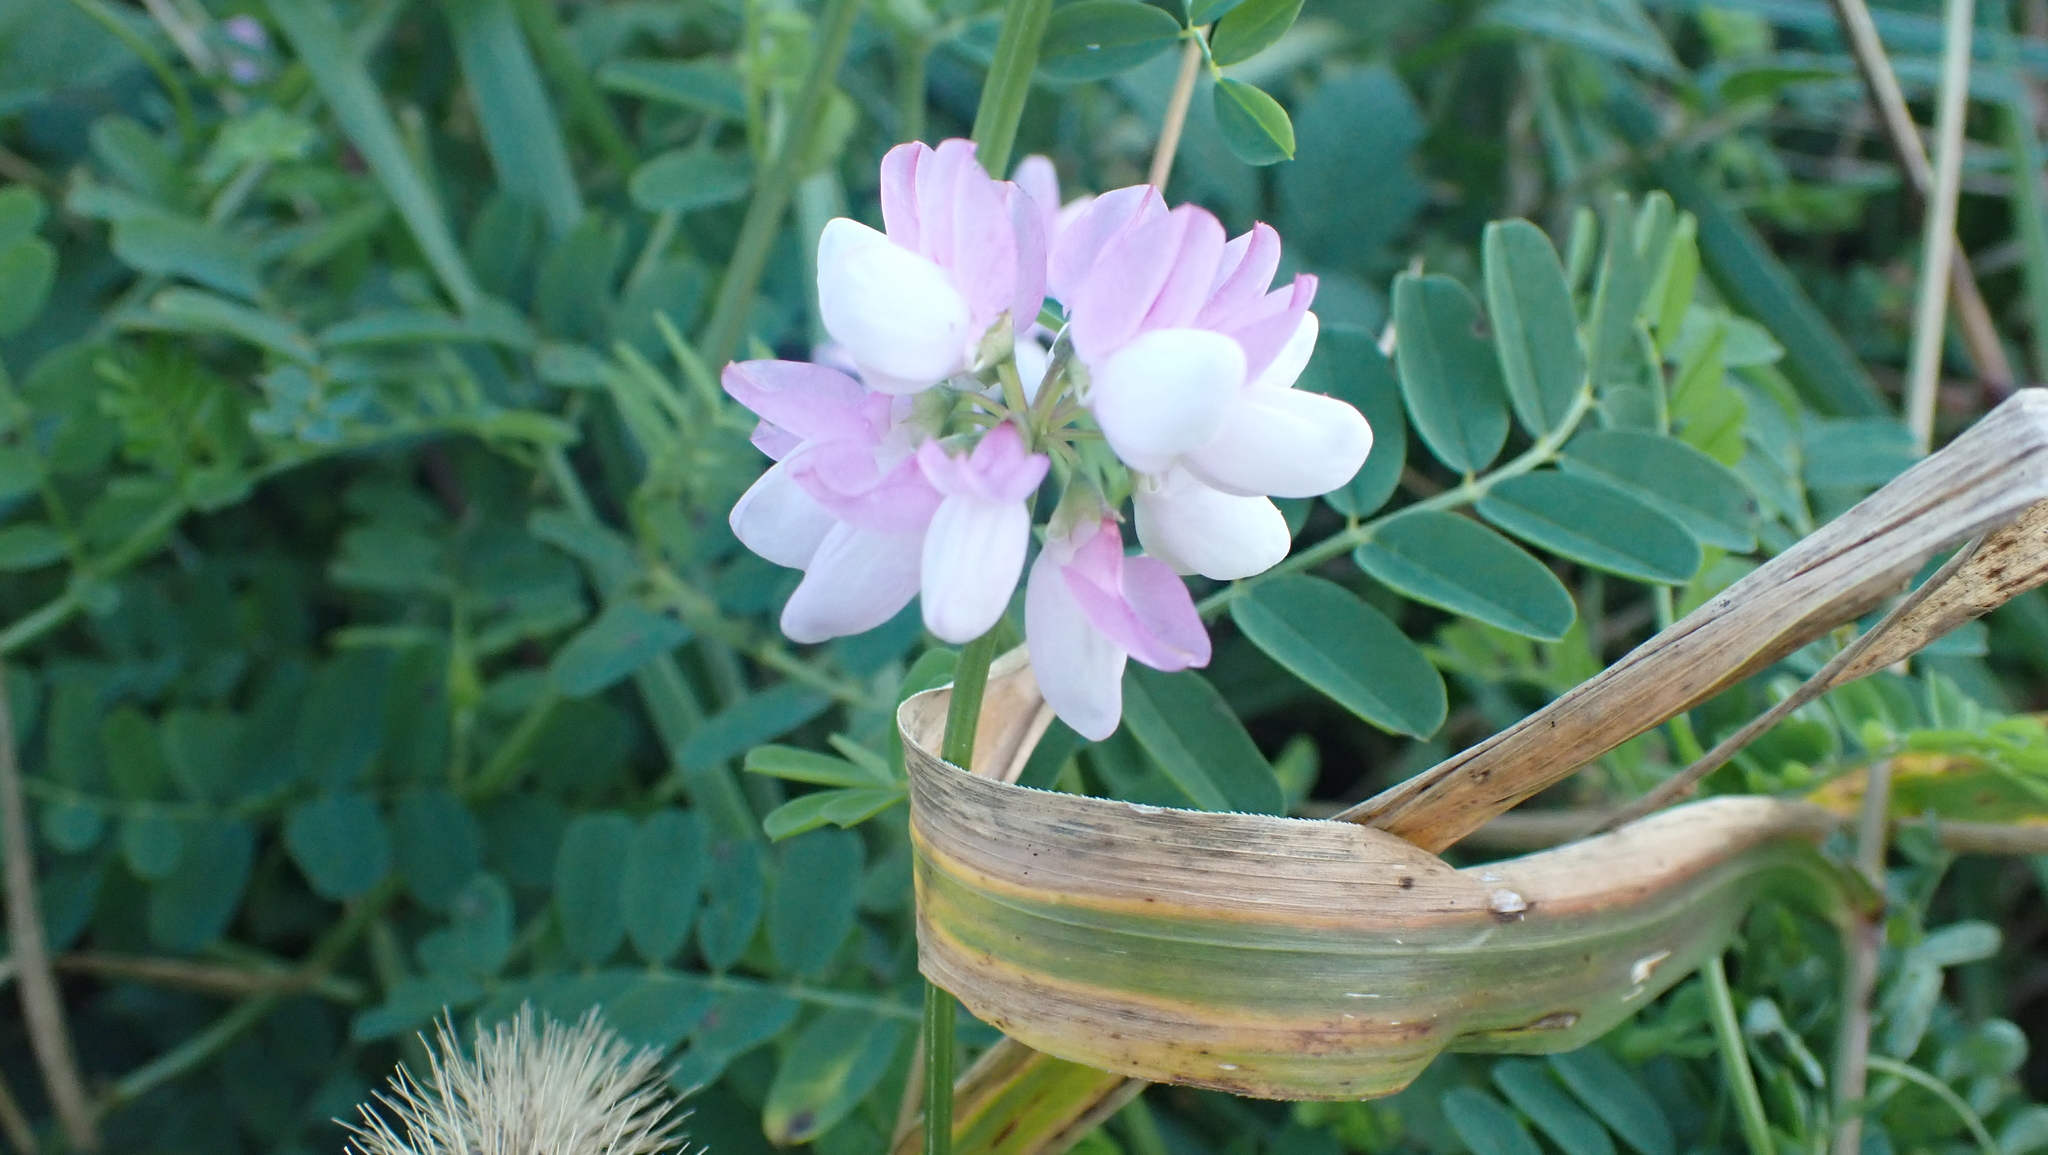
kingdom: Plantae
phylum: Tracheophyta
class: Magnoliopsida
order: Fabales
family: Fabaceae
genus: Coronilla
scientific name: Coronilla varia
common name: Crownvetch
